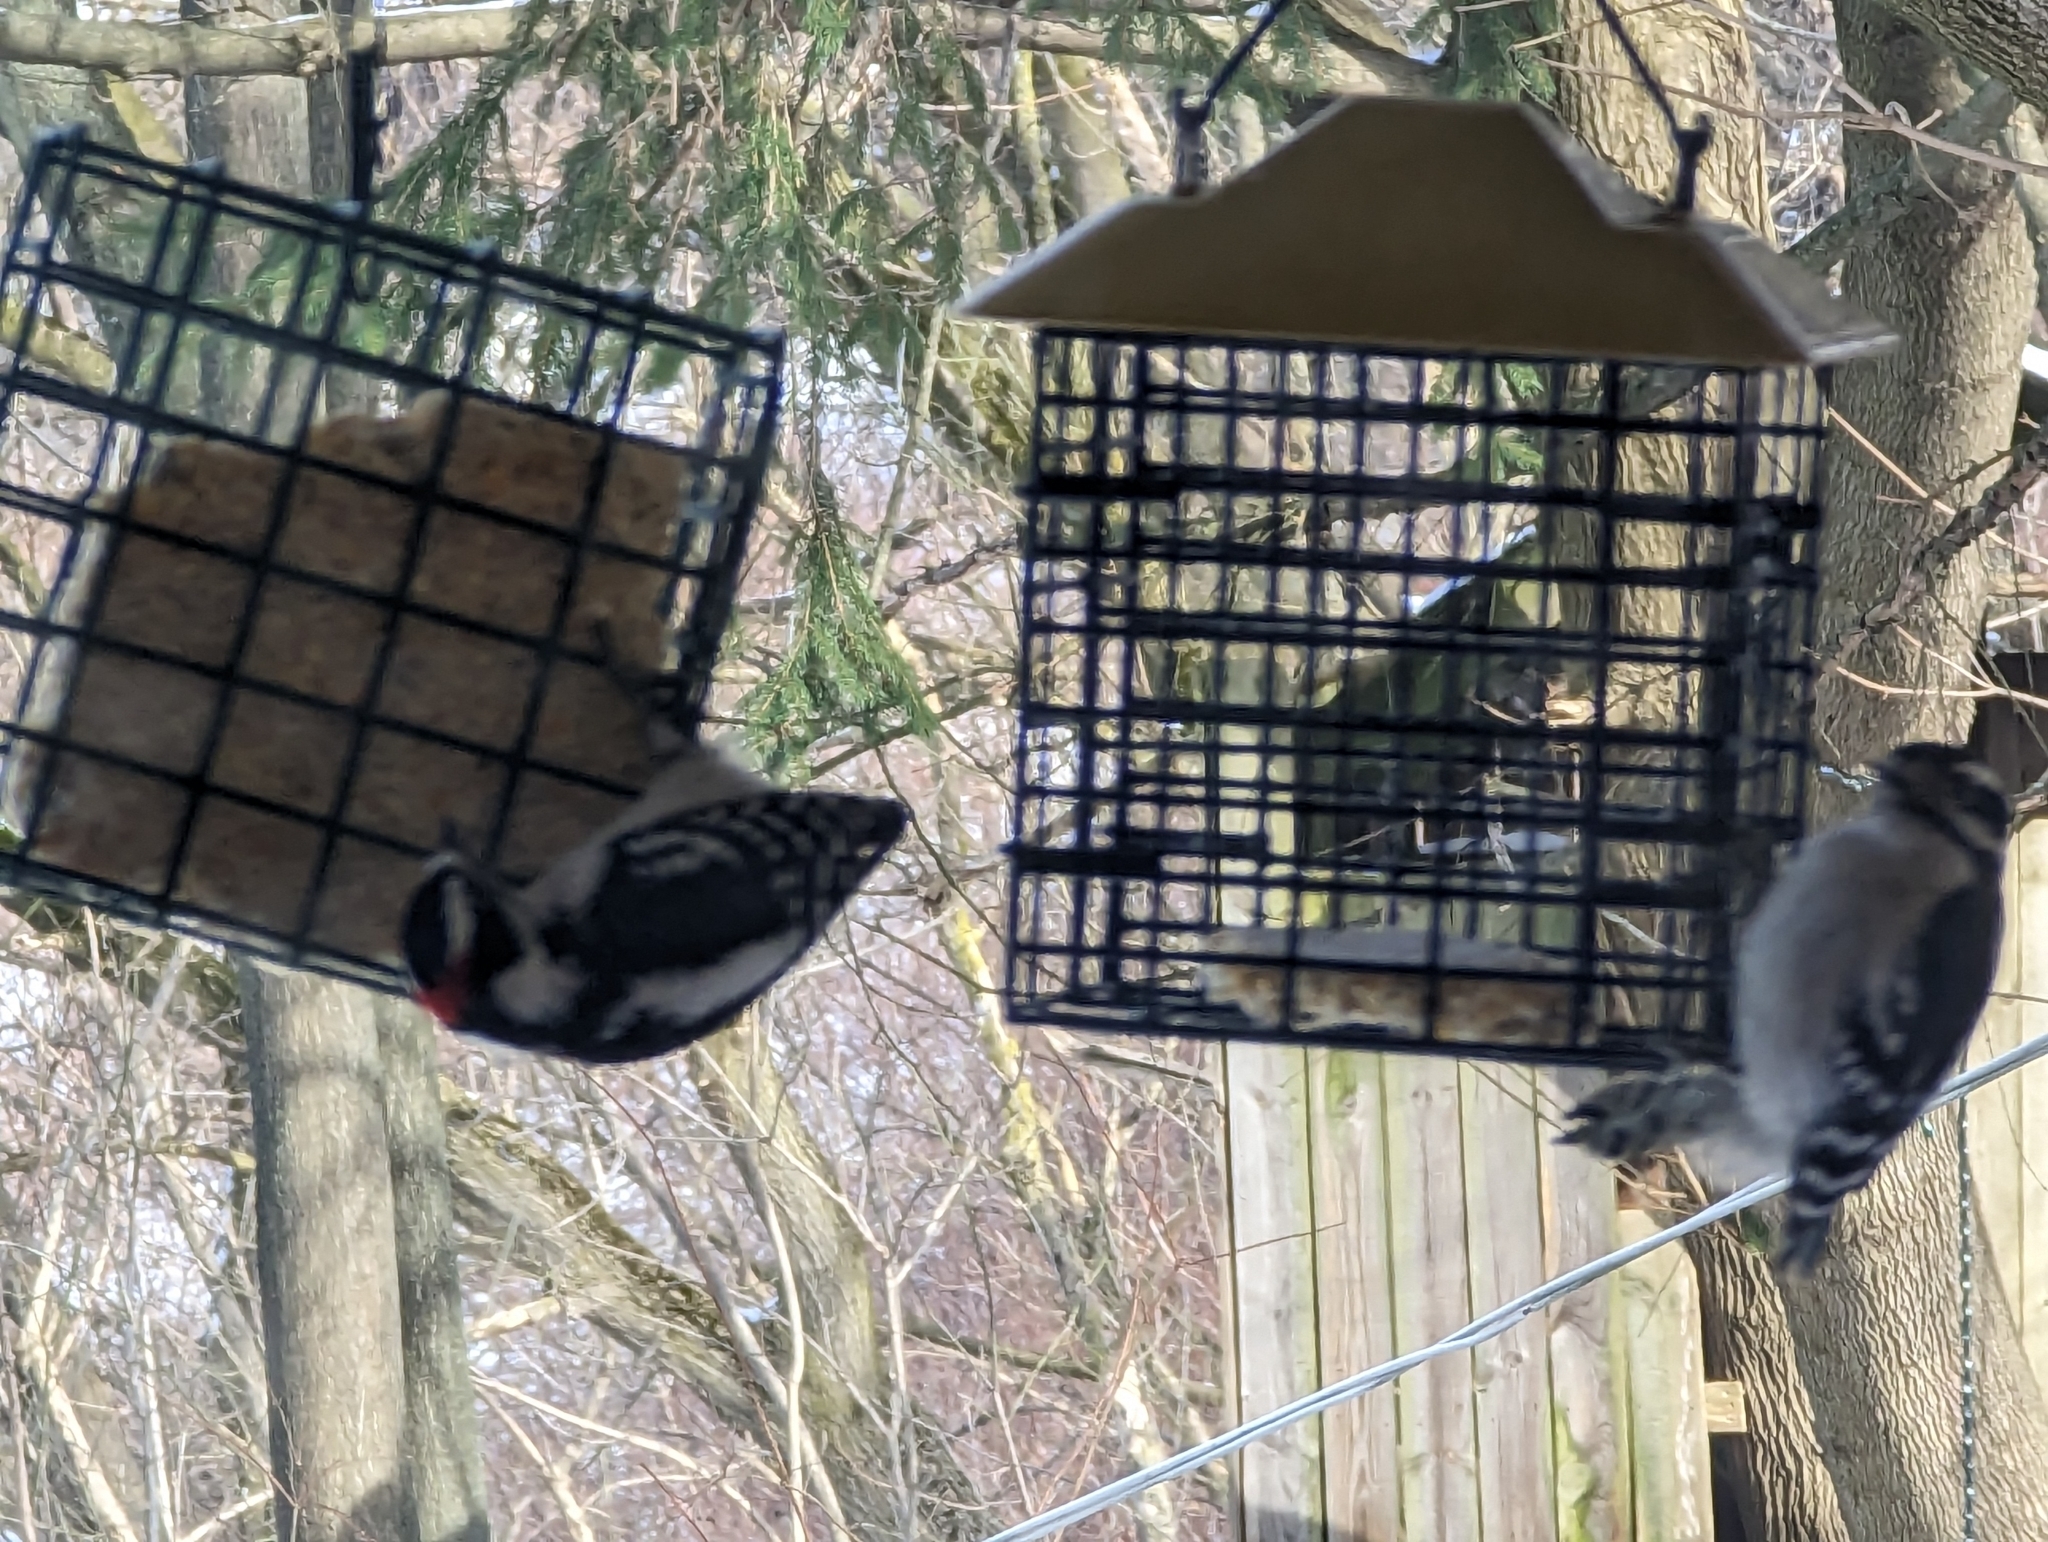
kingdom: Animalia
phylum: Chordata
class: Aves
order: Piciformes
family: Picidae
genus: Dryobates
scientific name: Dryobates pubescens
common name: Downy woodpecker
